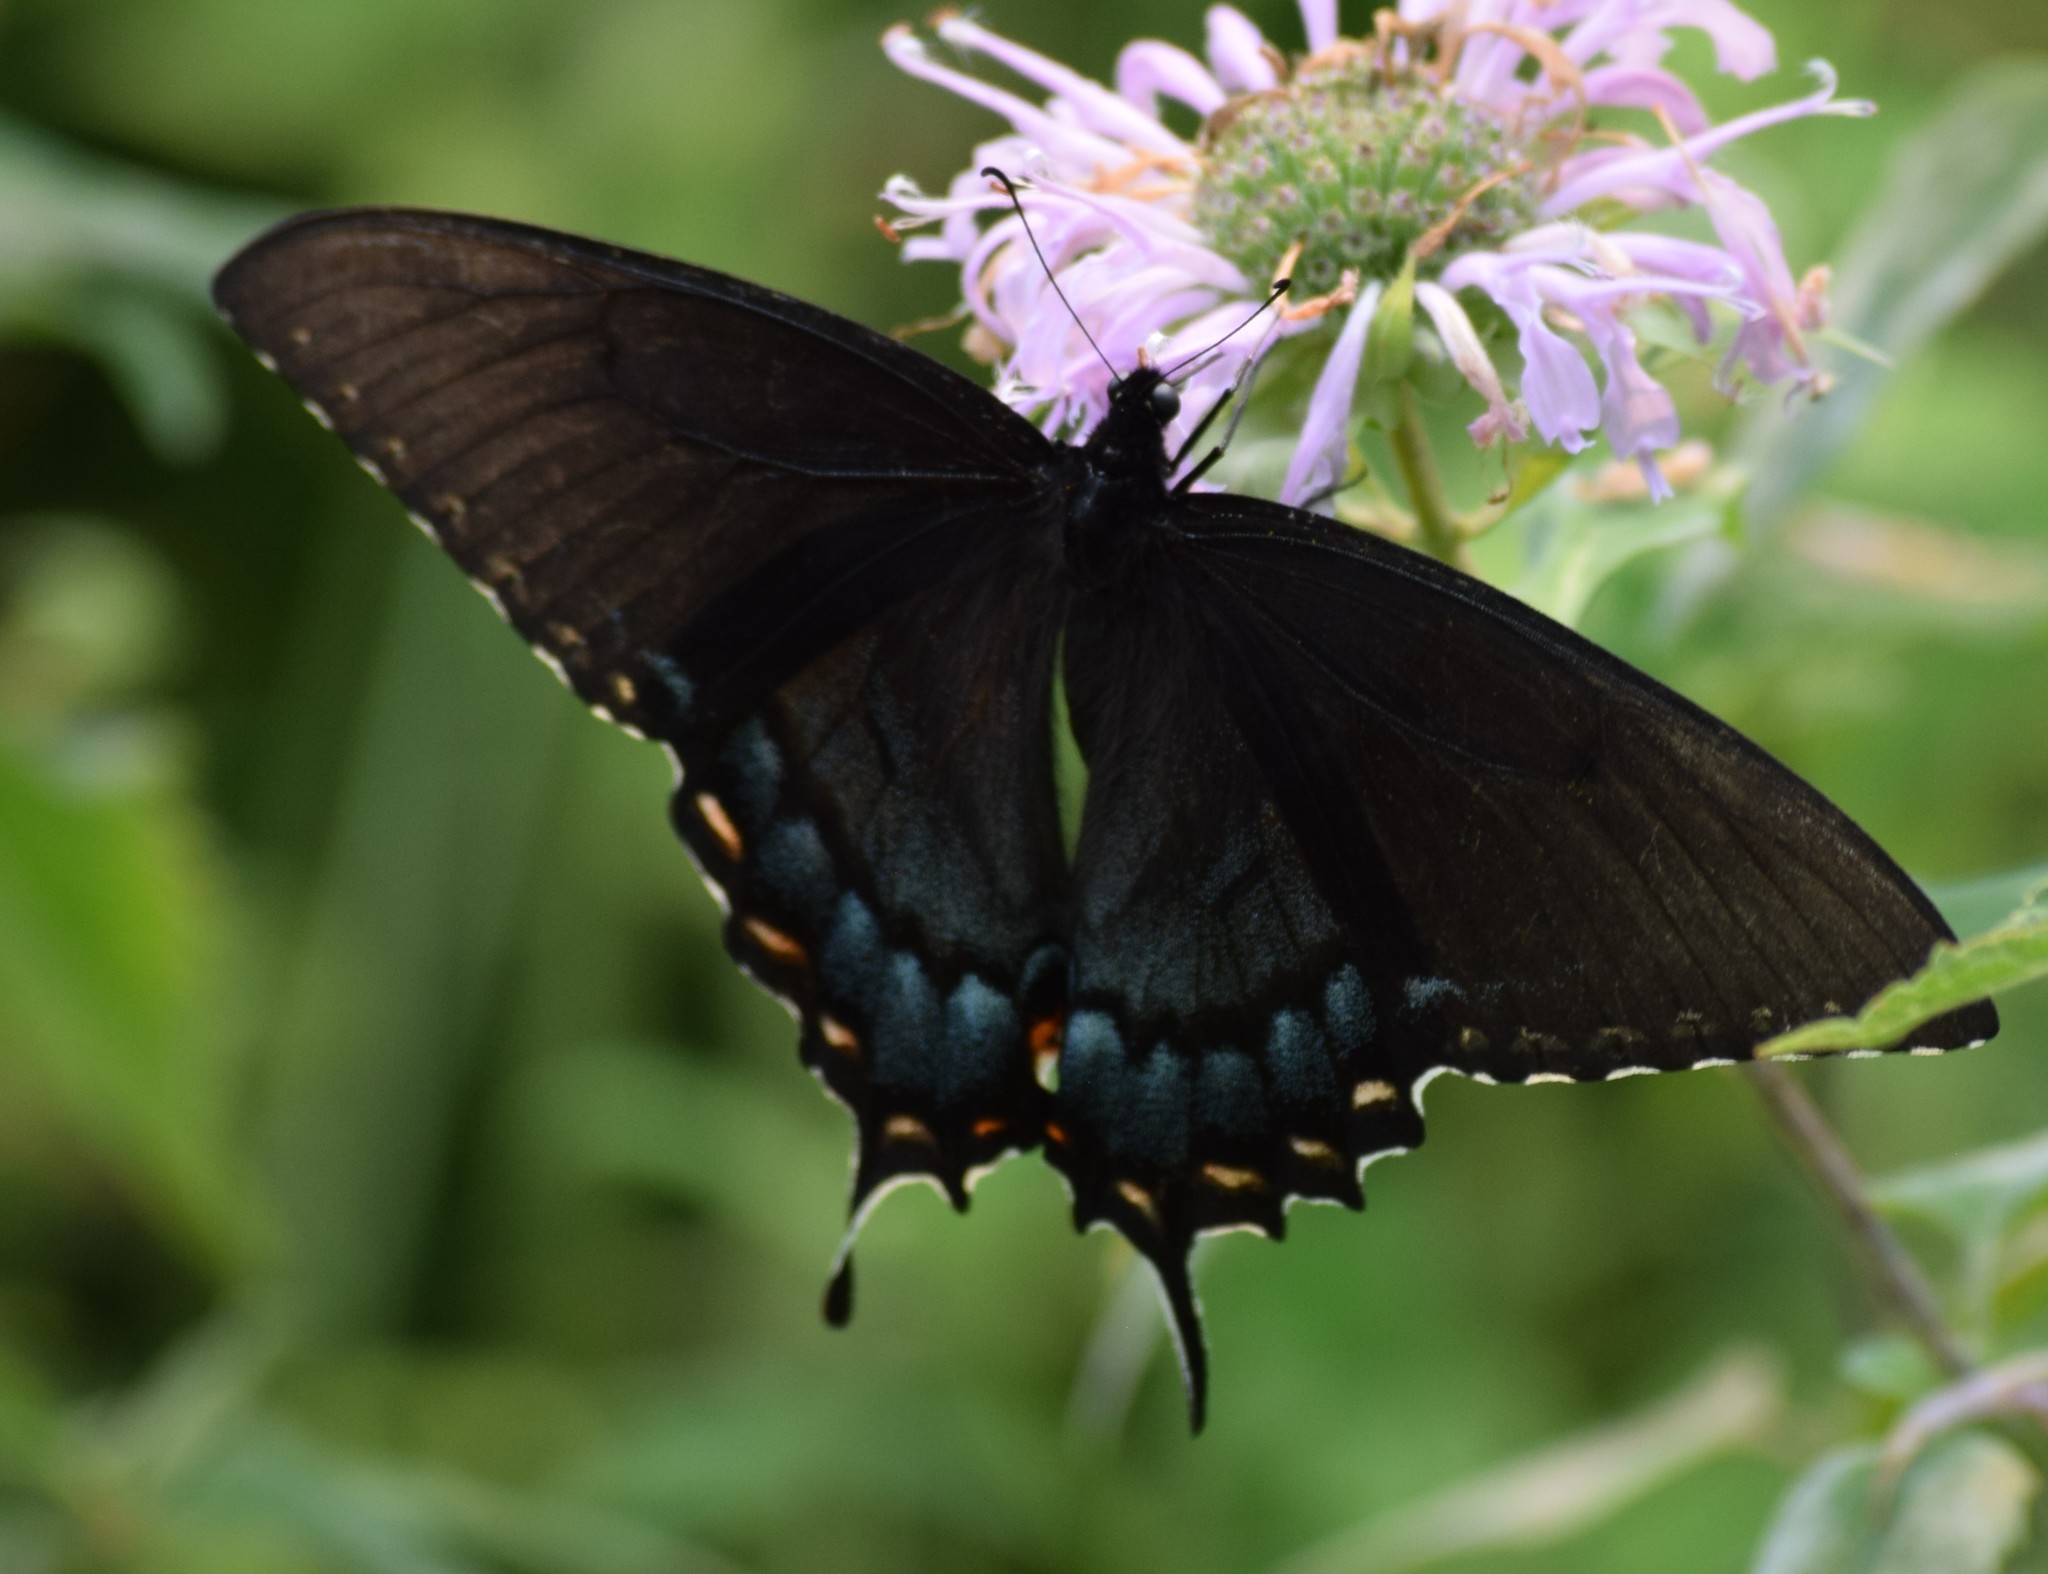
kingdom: Animalia
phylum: Arthropoda
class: Insecta
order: Lepidoptera
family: Papilionidae
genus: Papilio
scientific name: Papilio glaucus
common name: Tiger swallowtail
